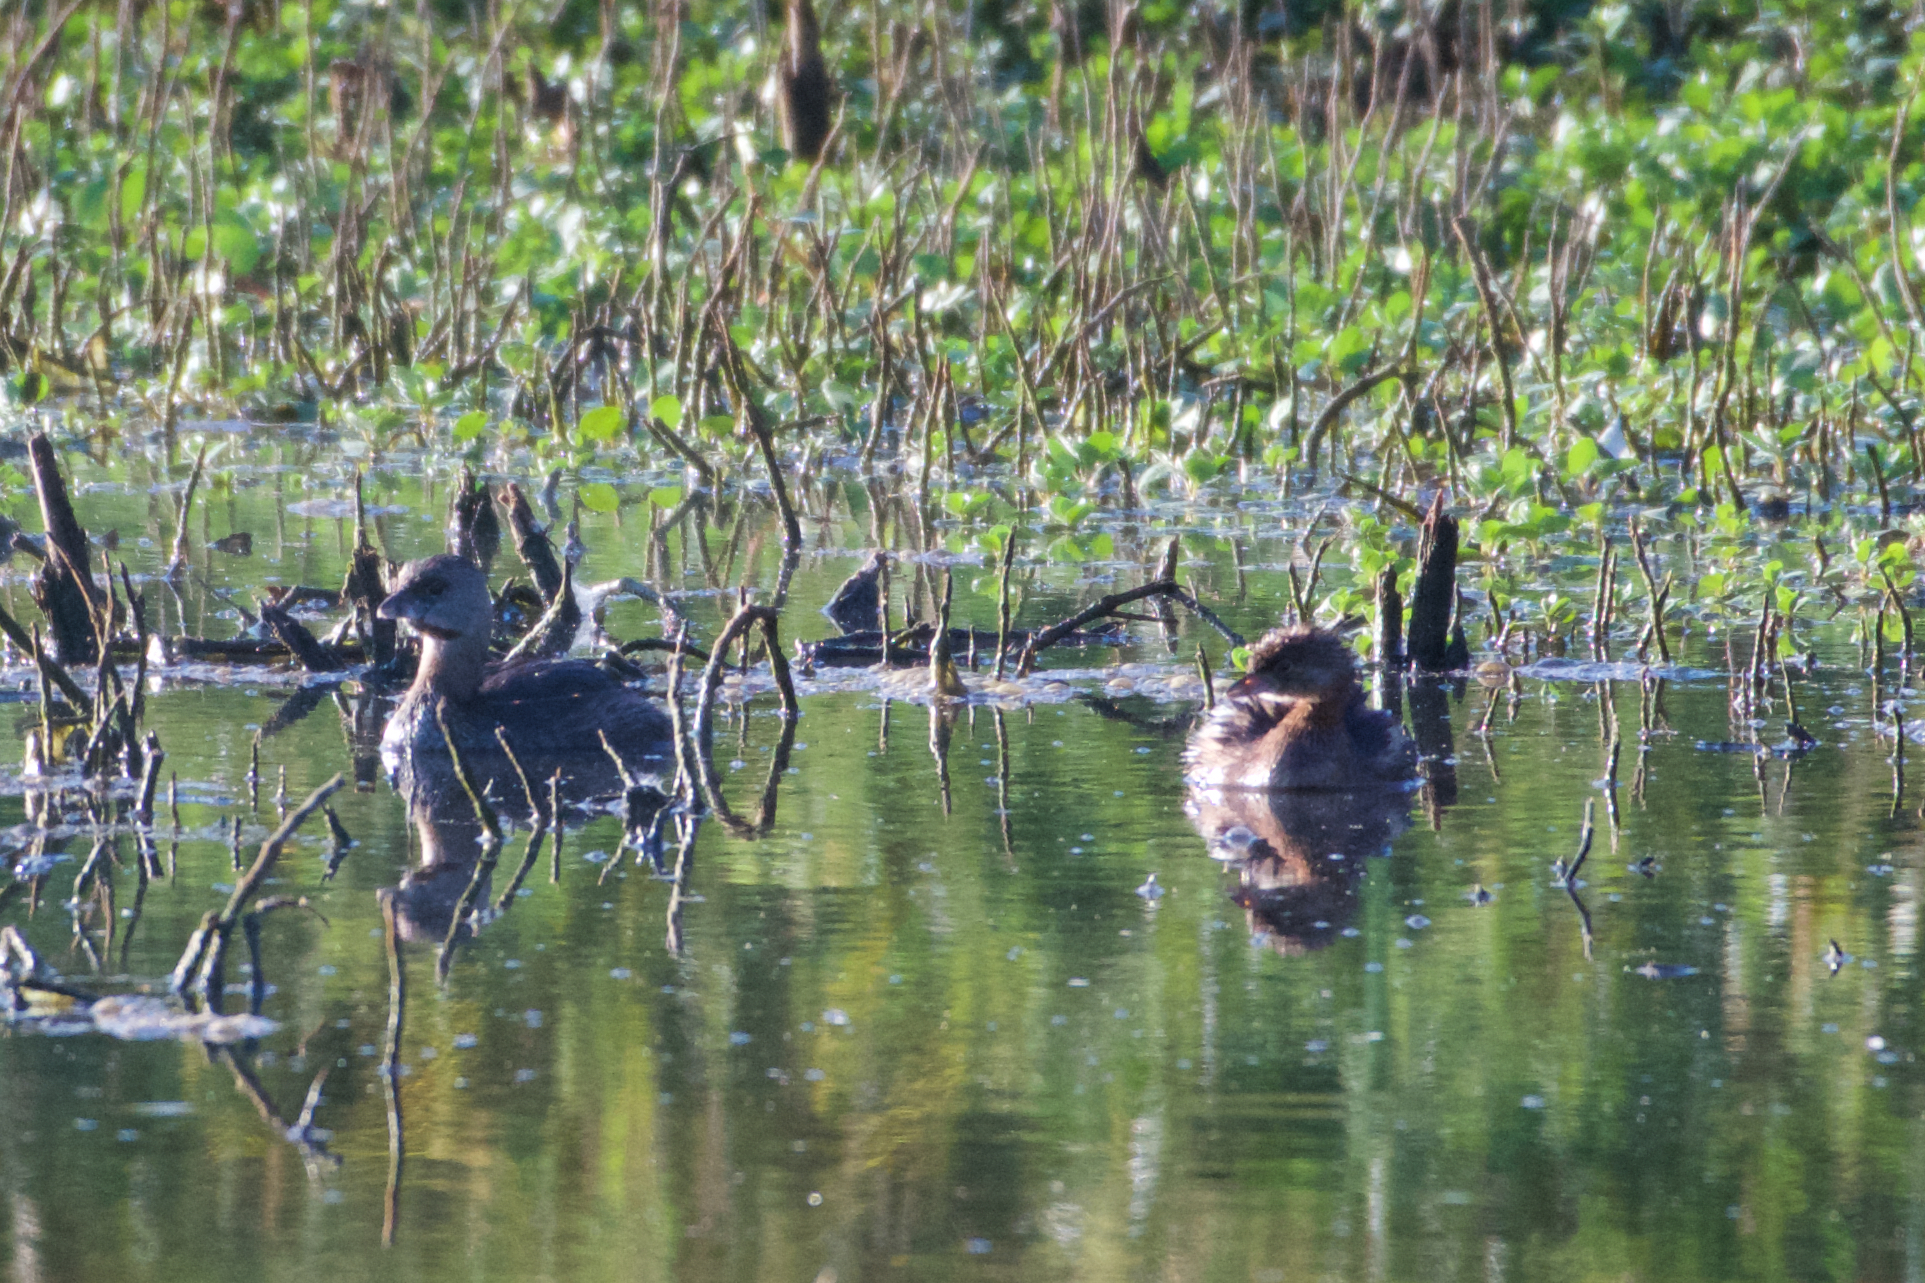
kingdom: Animalia
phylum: Chordata
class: Aves
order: Podicipediformes
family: Podicipedidae
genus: Podilymbus
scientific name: Podilymbus podiceps
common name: Pied-billed grebe
